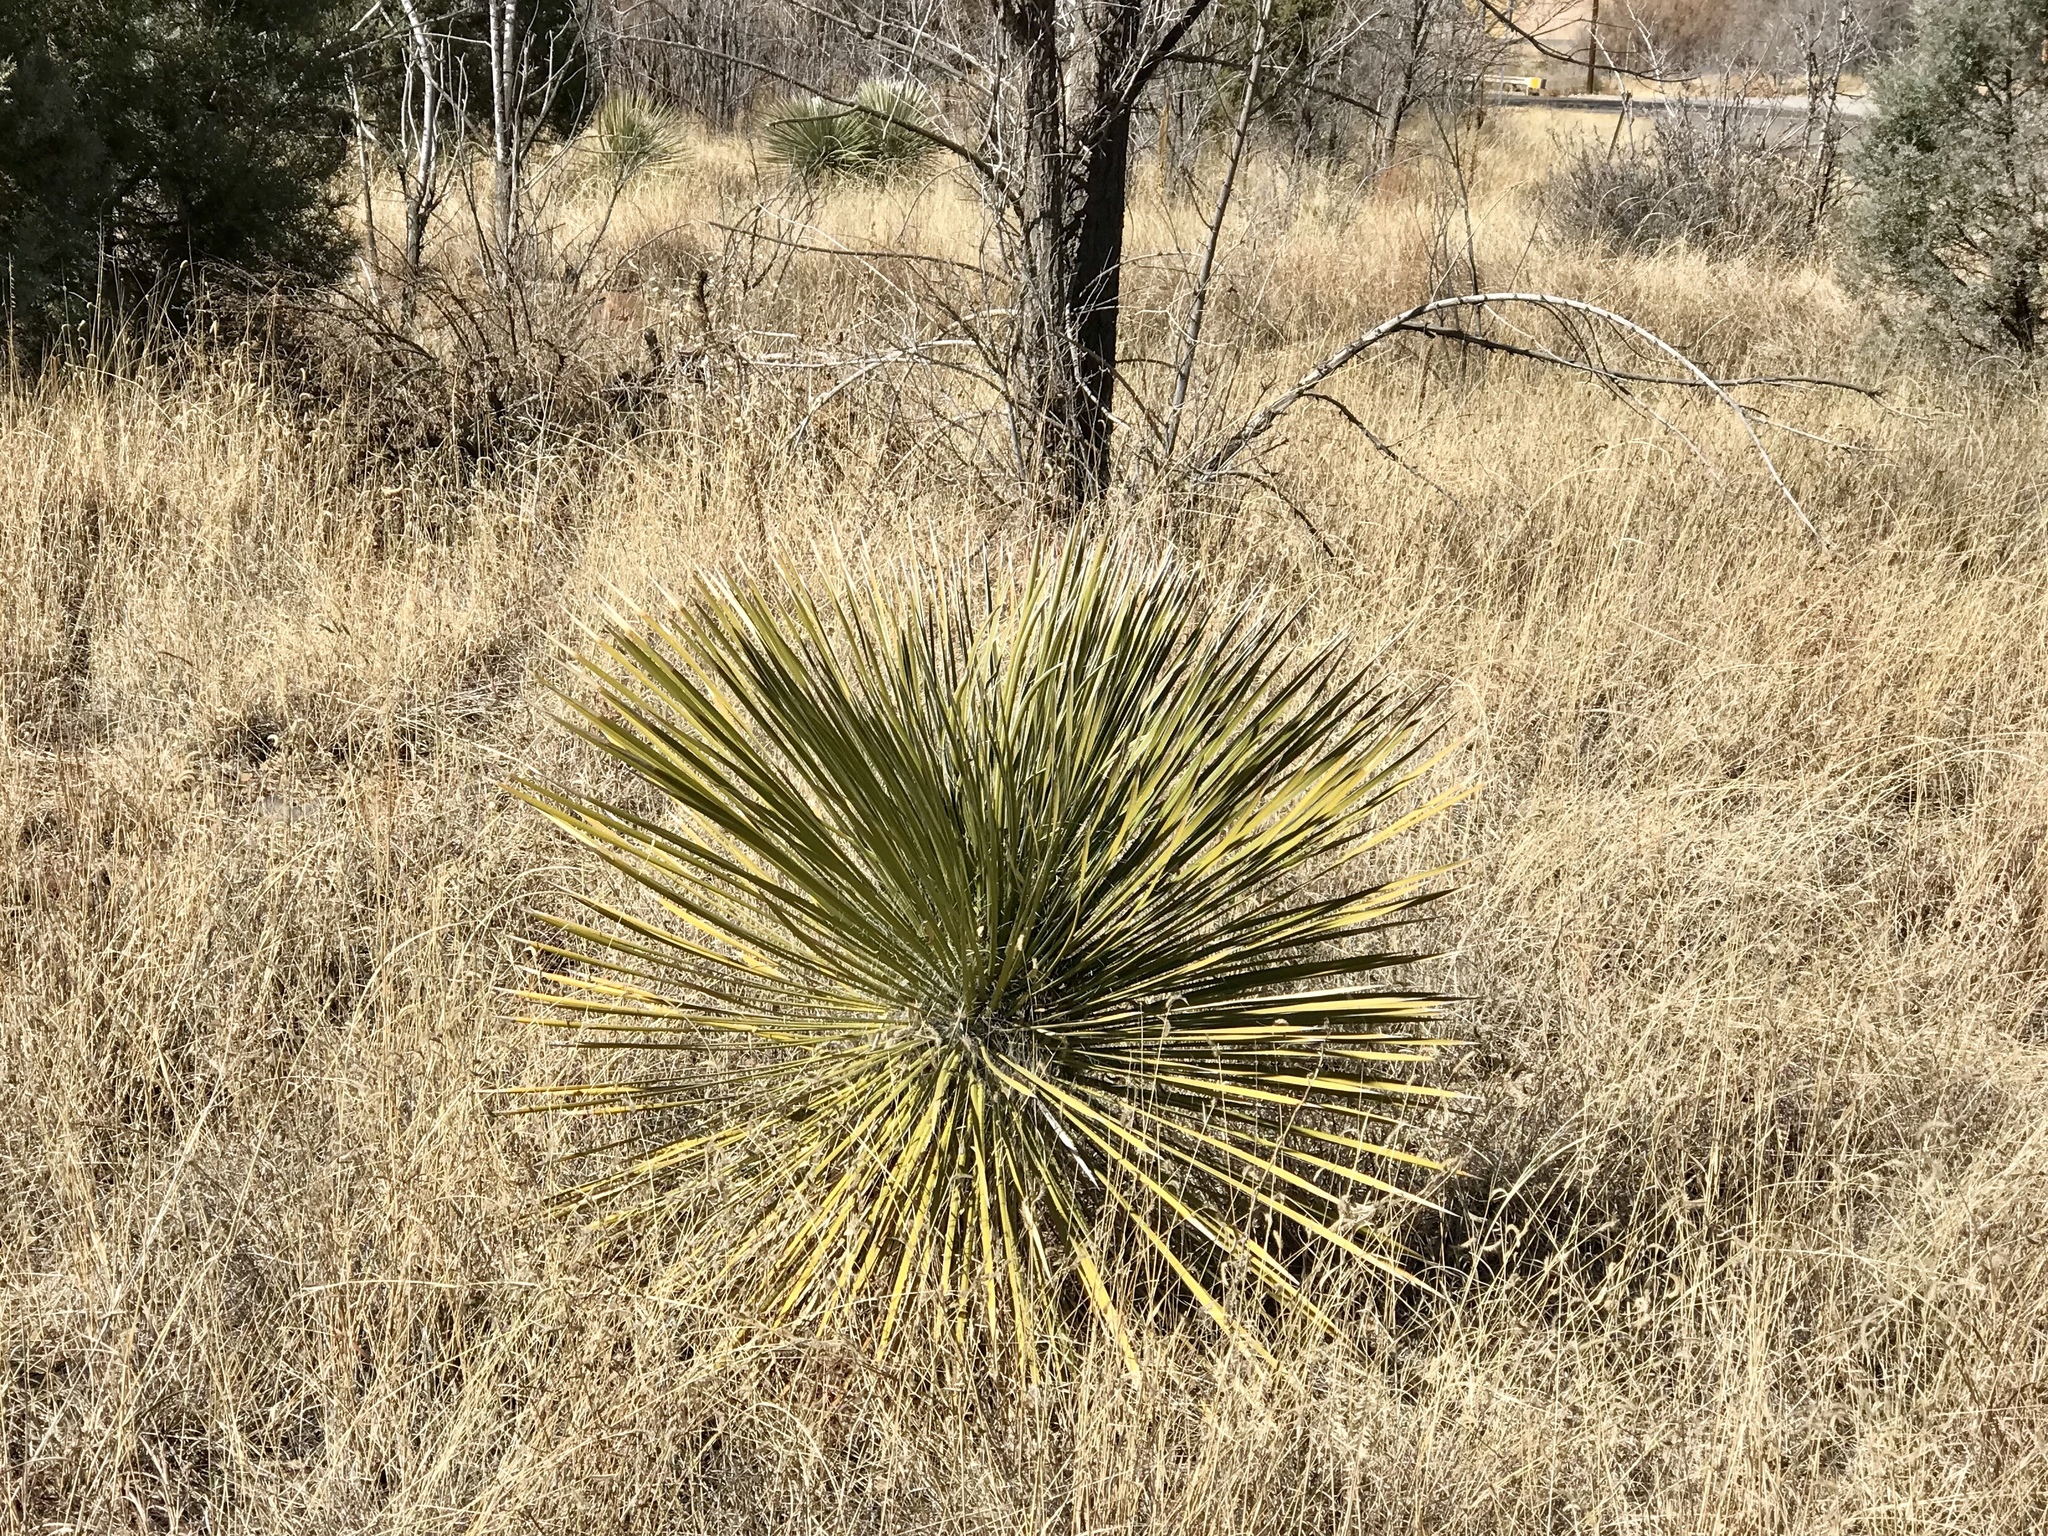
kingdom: Plantae
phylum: Tracheophyta
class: Liliopsida
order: Asparagales
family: Asparagaceae
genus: Yucca
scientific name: Yucca elata
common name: Palmella
